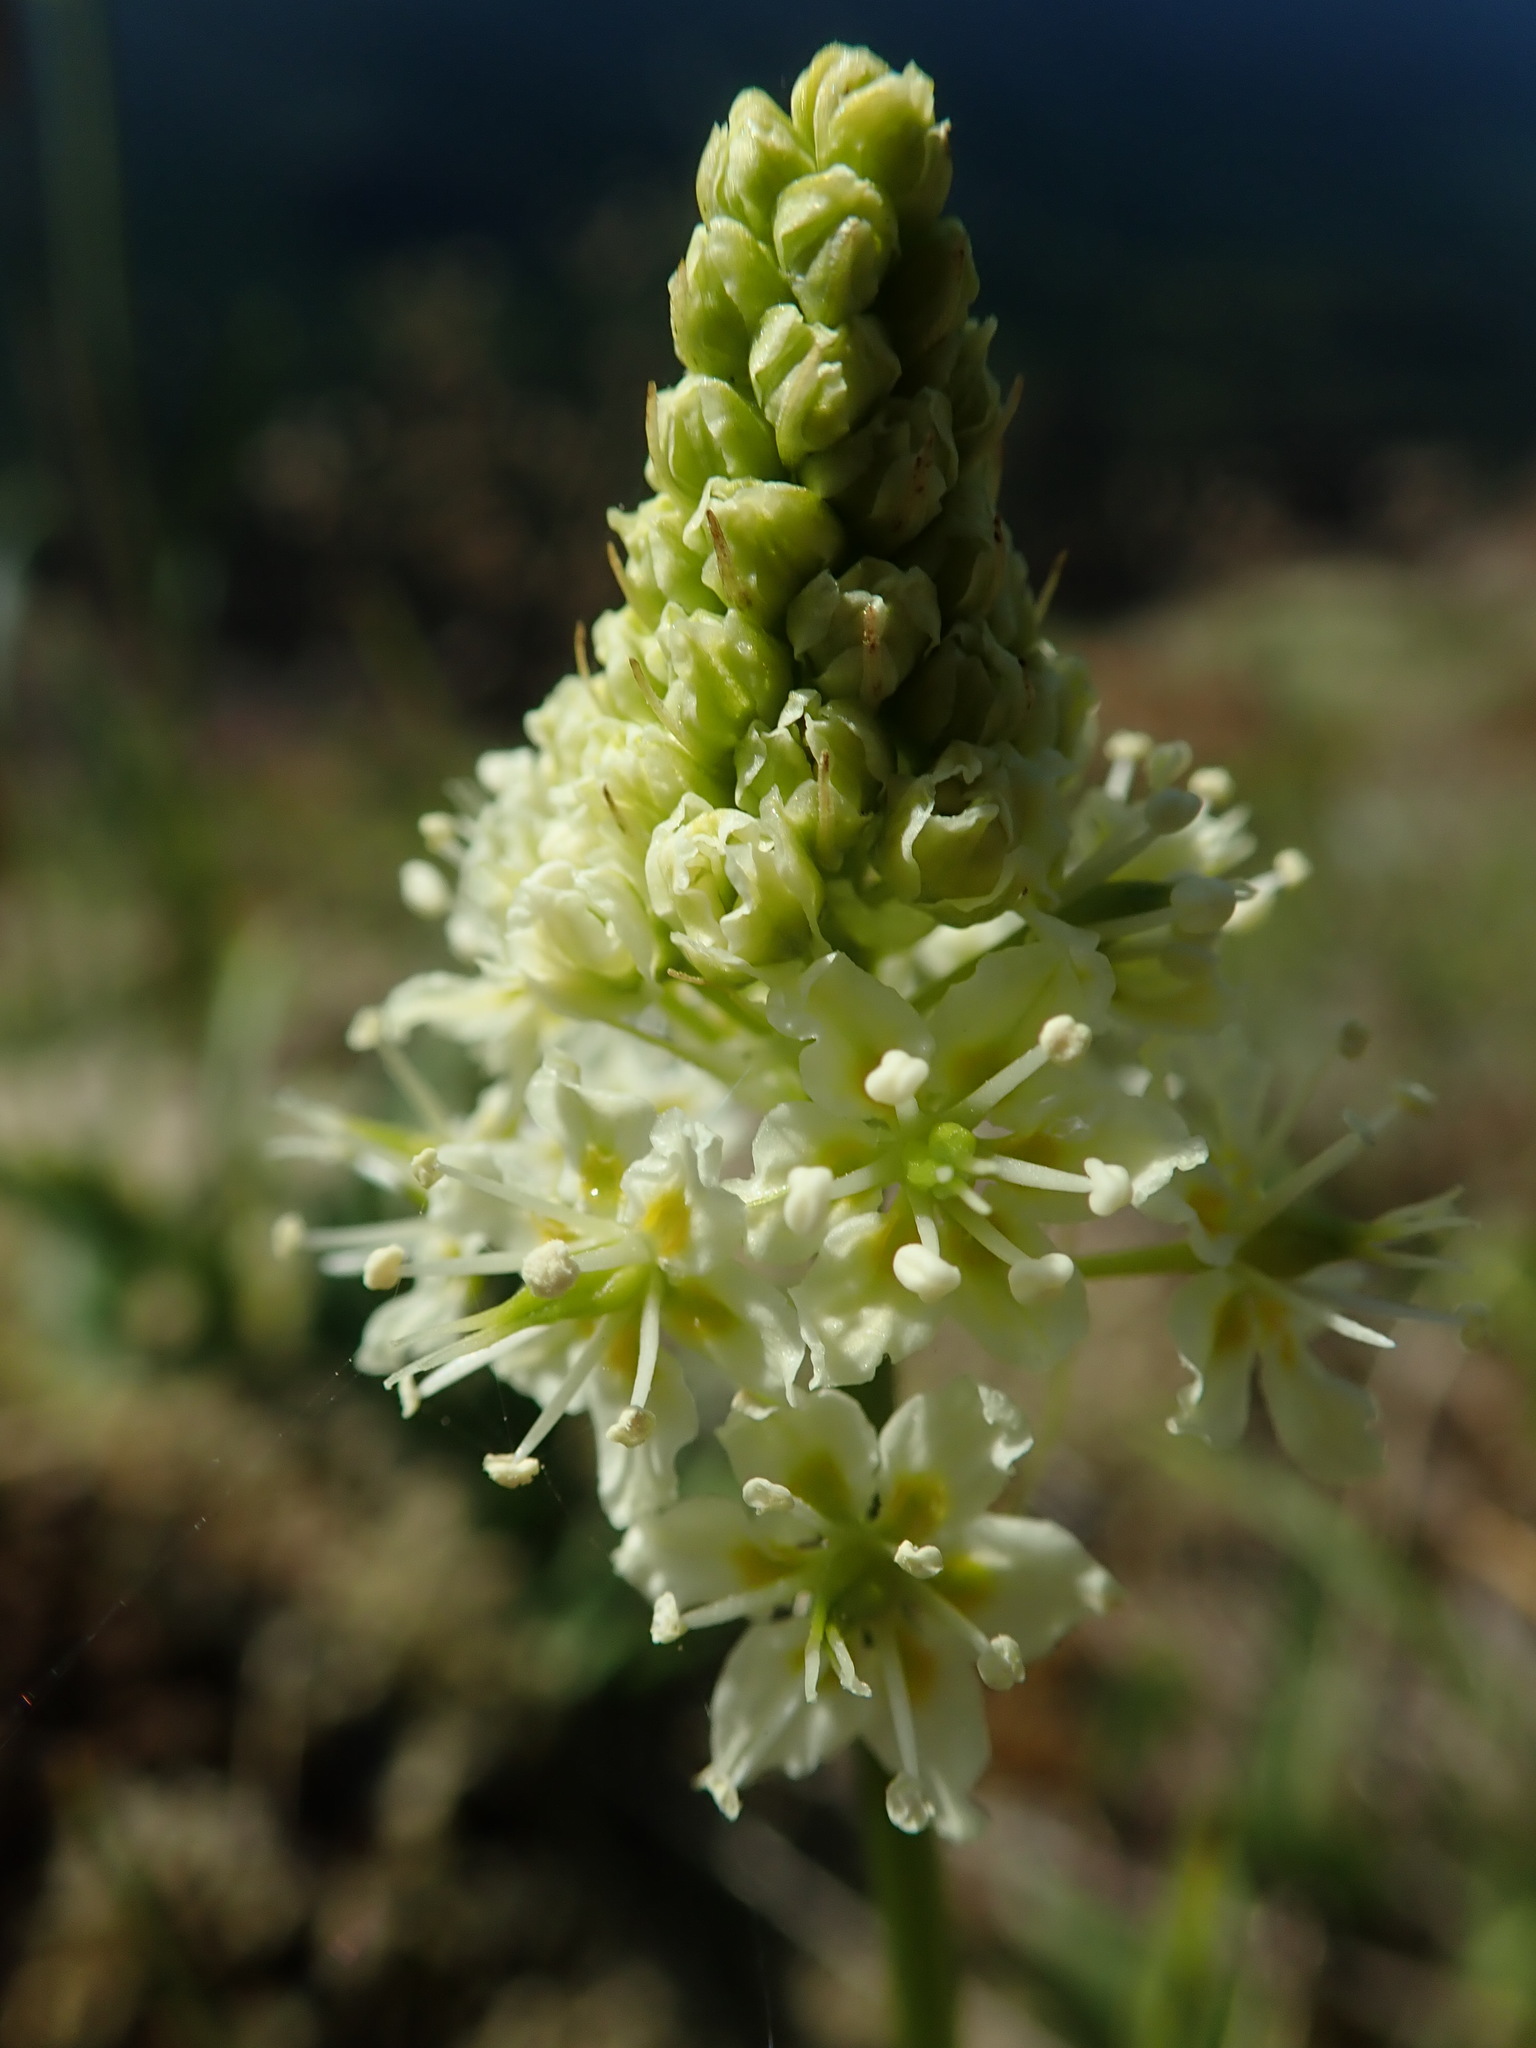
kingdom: Plantae
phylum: Tracheophyta
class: Liliopsida
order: Liliales
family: Melanthiaceae
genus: Toxicoscordion
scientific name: Toxicoscordion venenosum
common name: Meadow death camas
